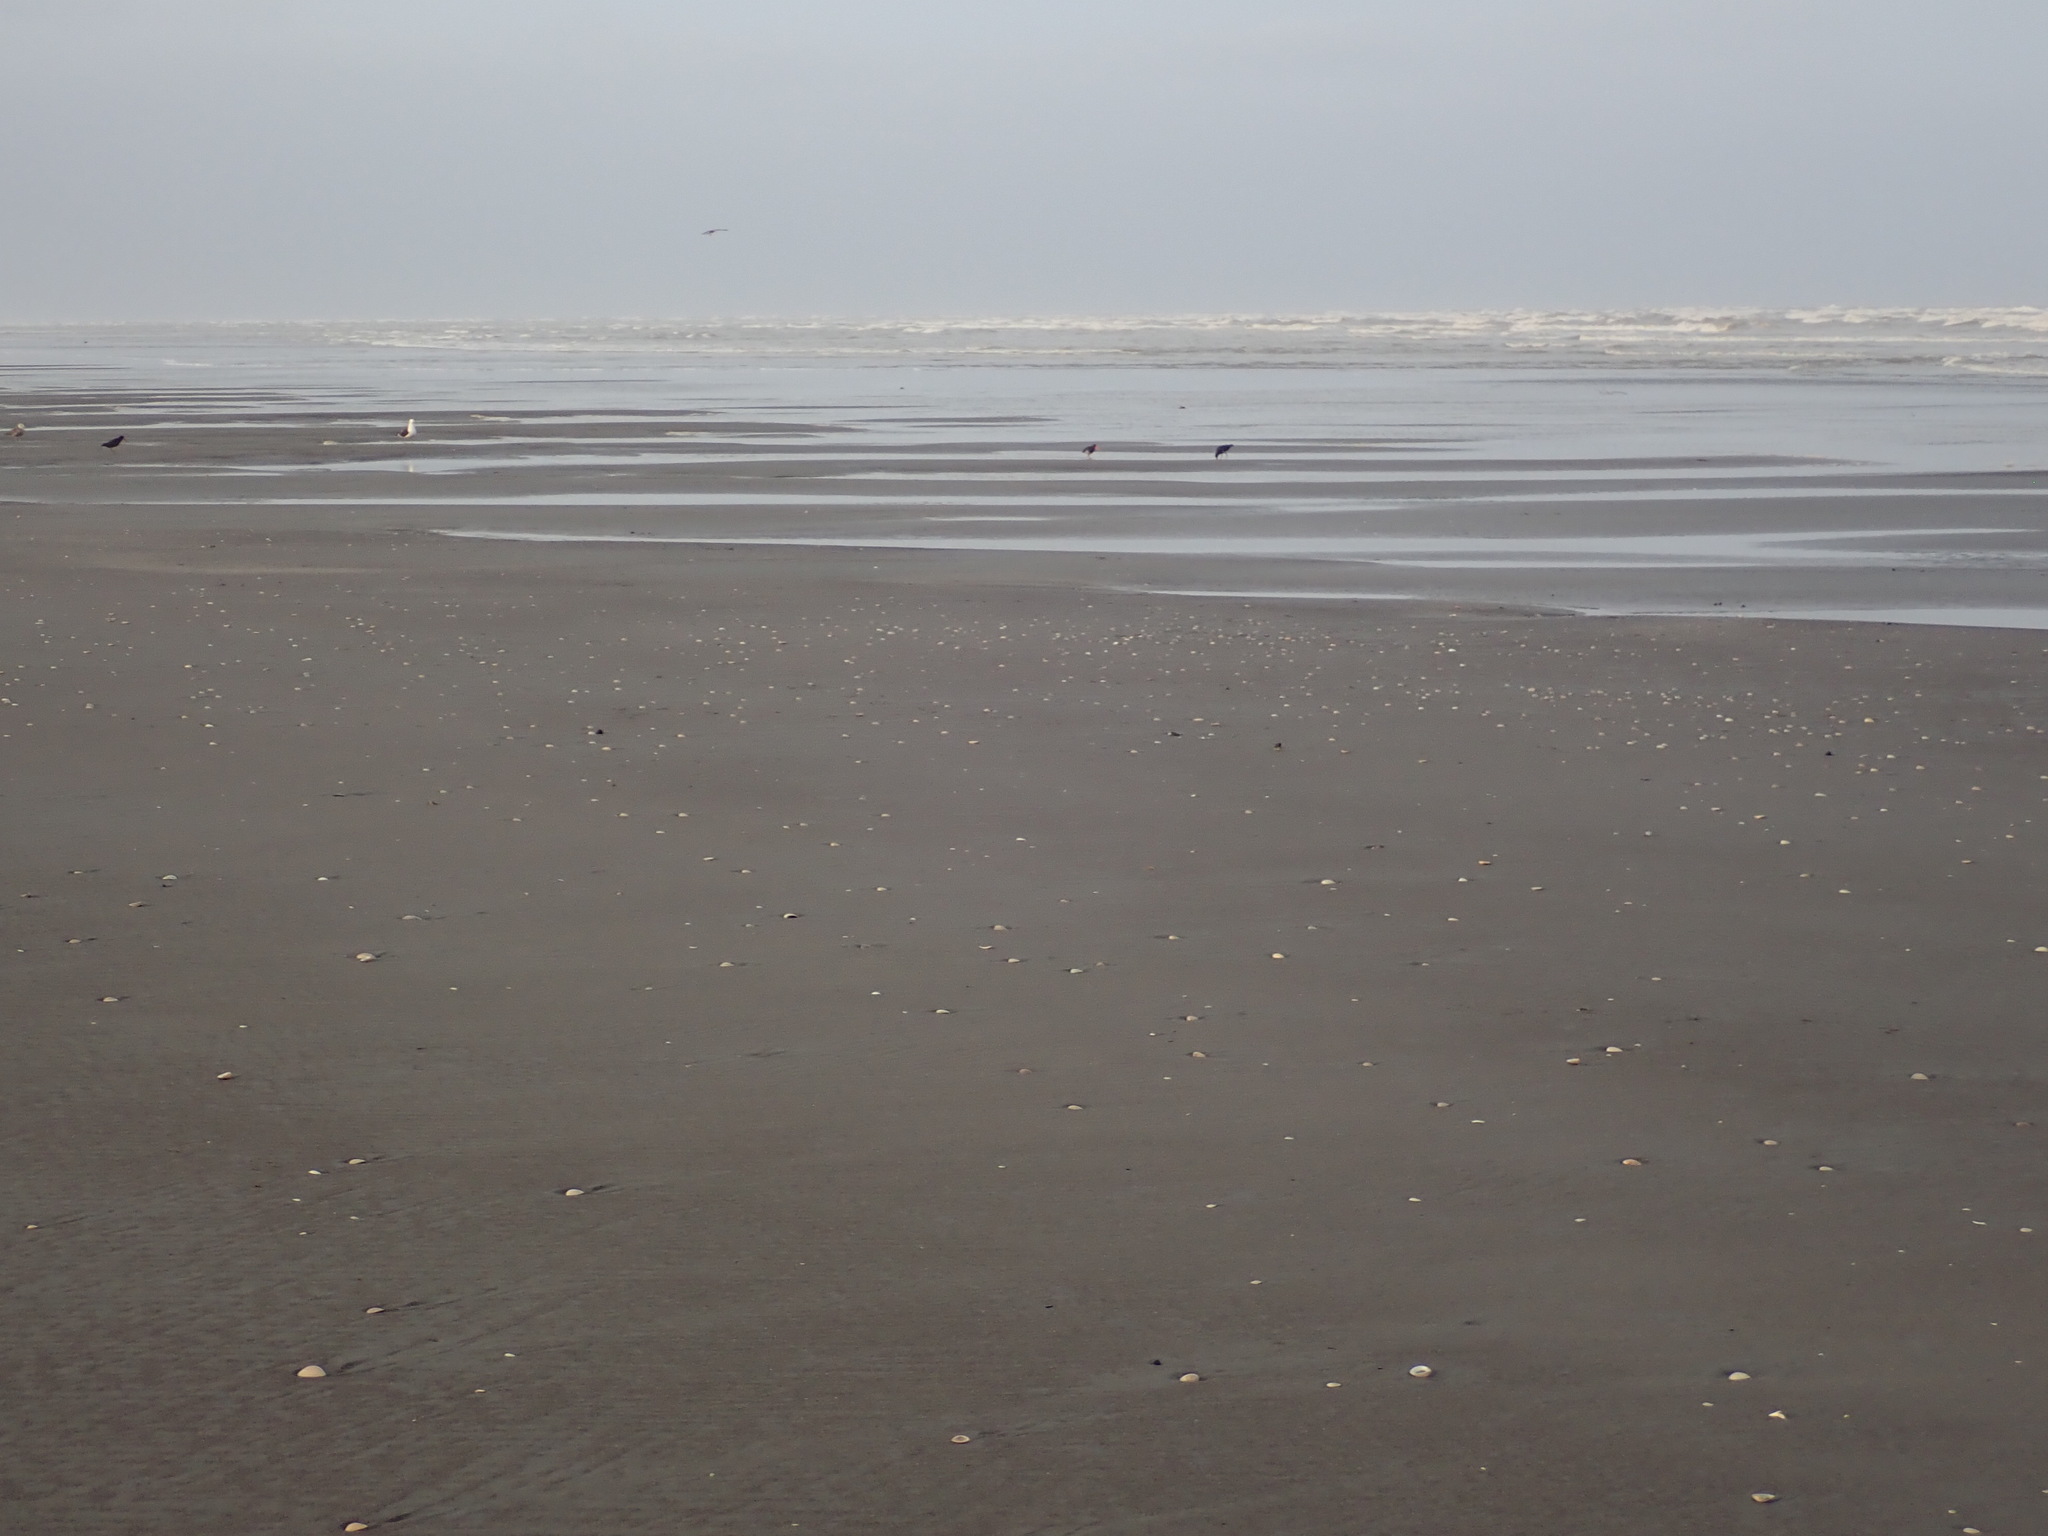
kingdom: Animalia
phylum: Chordata
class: Aves
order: Charadriiformes
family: Haematopodidae
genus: Haematopus
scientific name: Haematopus unicolor
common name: Variable oystercatcher
